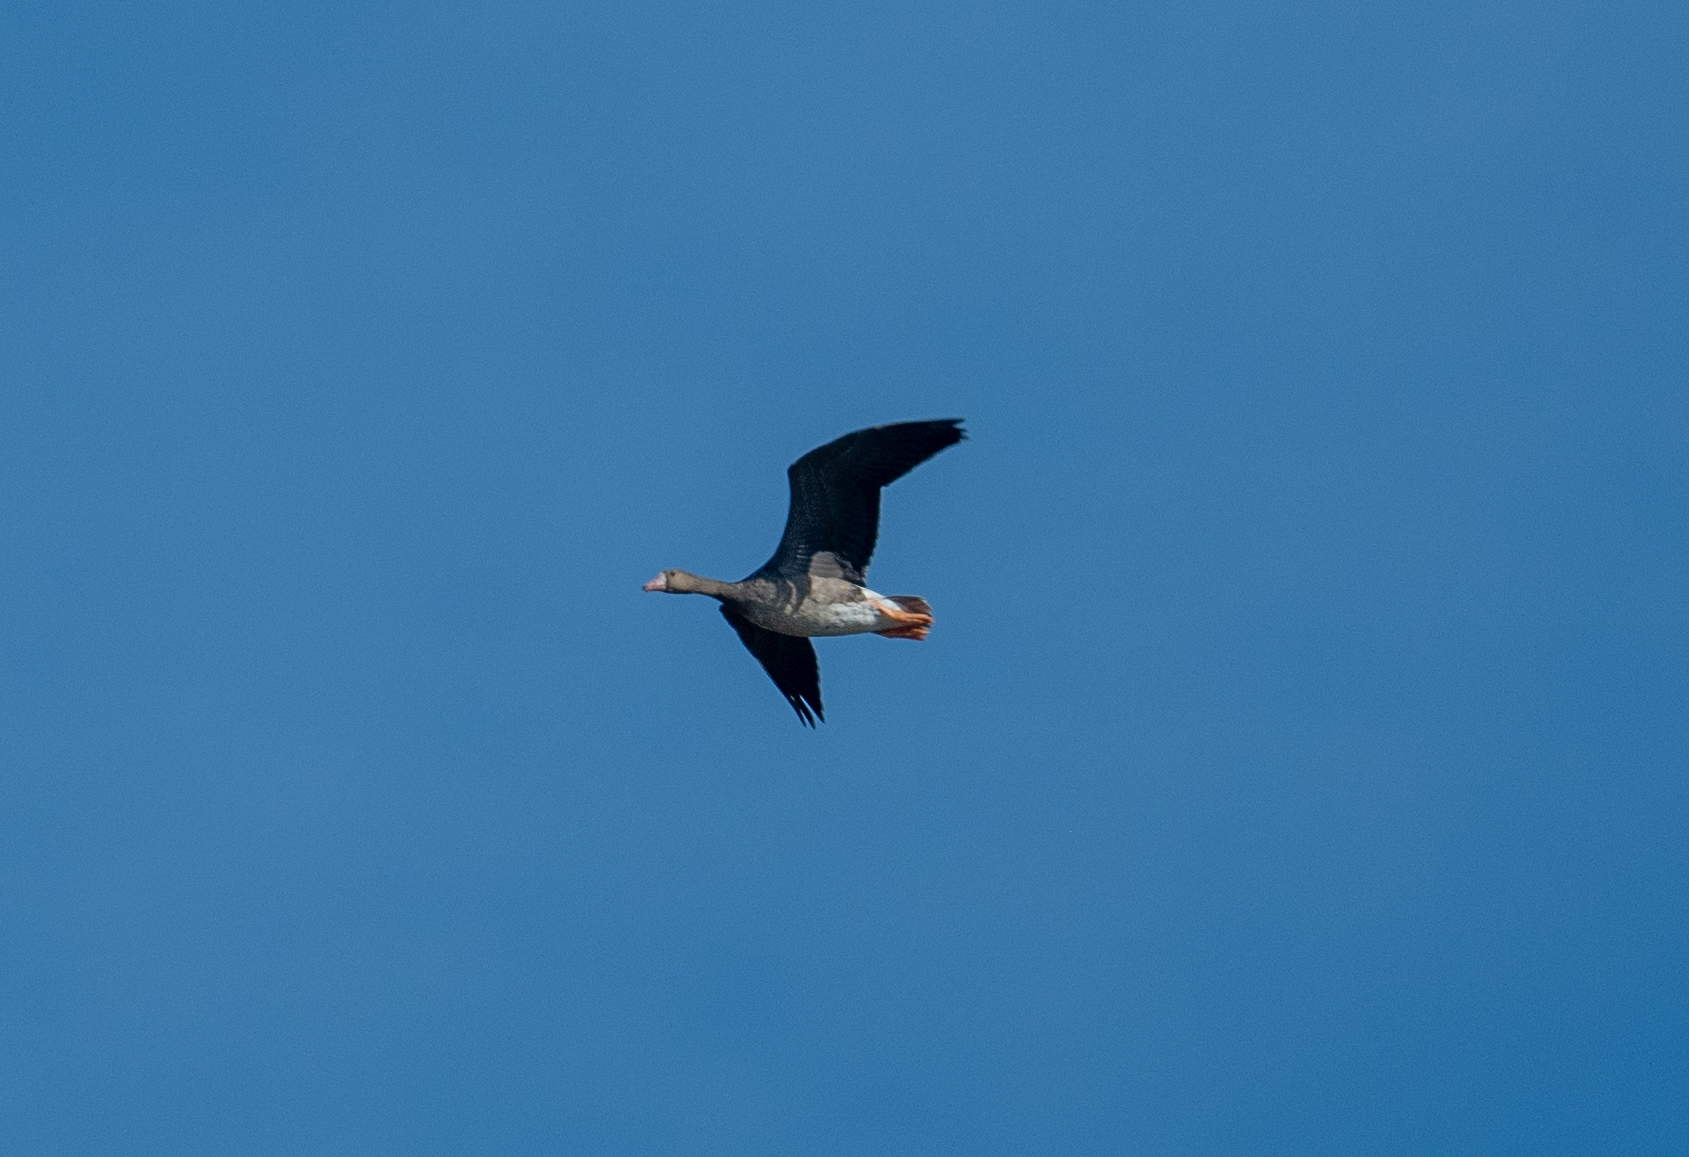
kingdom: Animalia
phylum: Chordata
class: Aves
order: Anseriformes
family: Anatidae
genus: Anser
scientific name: Anser albifrons
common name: Greater white-fronted goose
